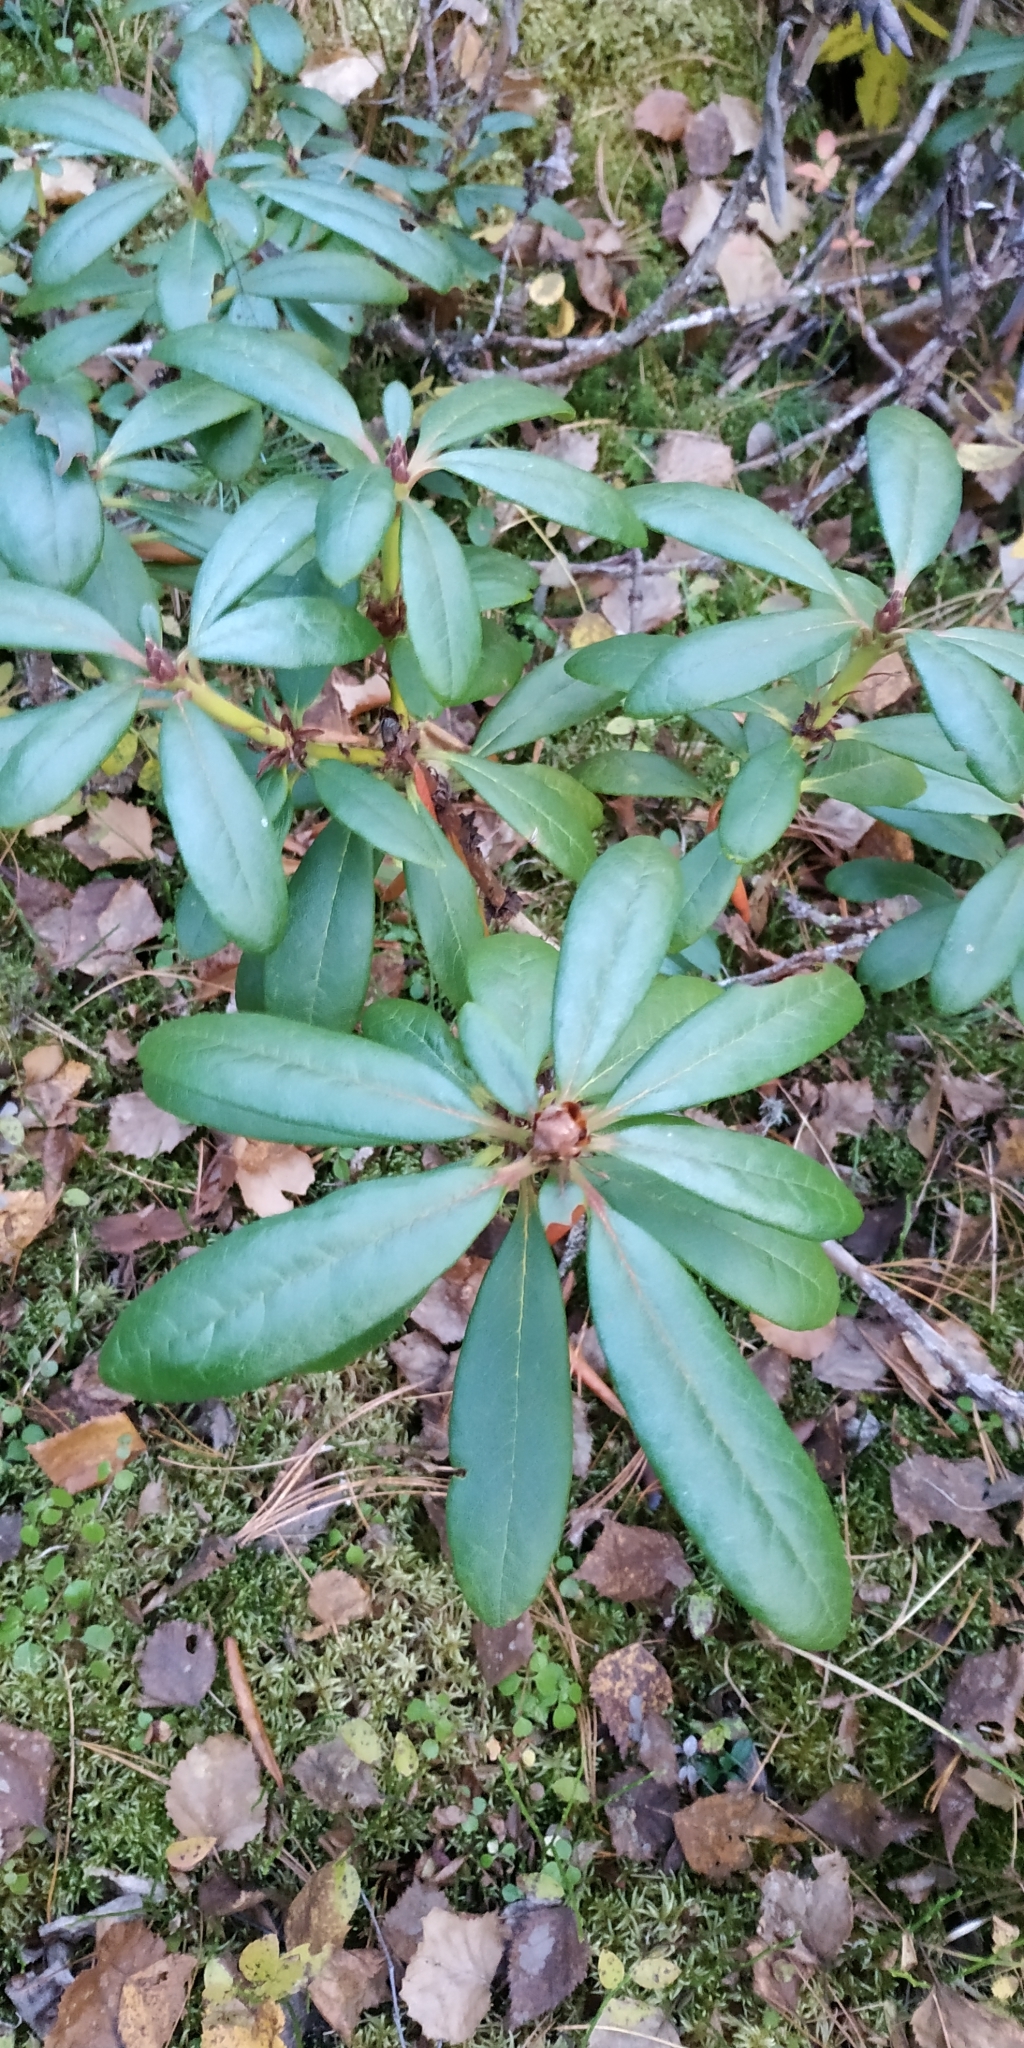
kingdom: Plantae
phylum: Tracheophyta
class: Magnoliopsida
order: Ericales
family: Ericaceae
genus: Rhododendron
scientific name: Rhododendron aureum
